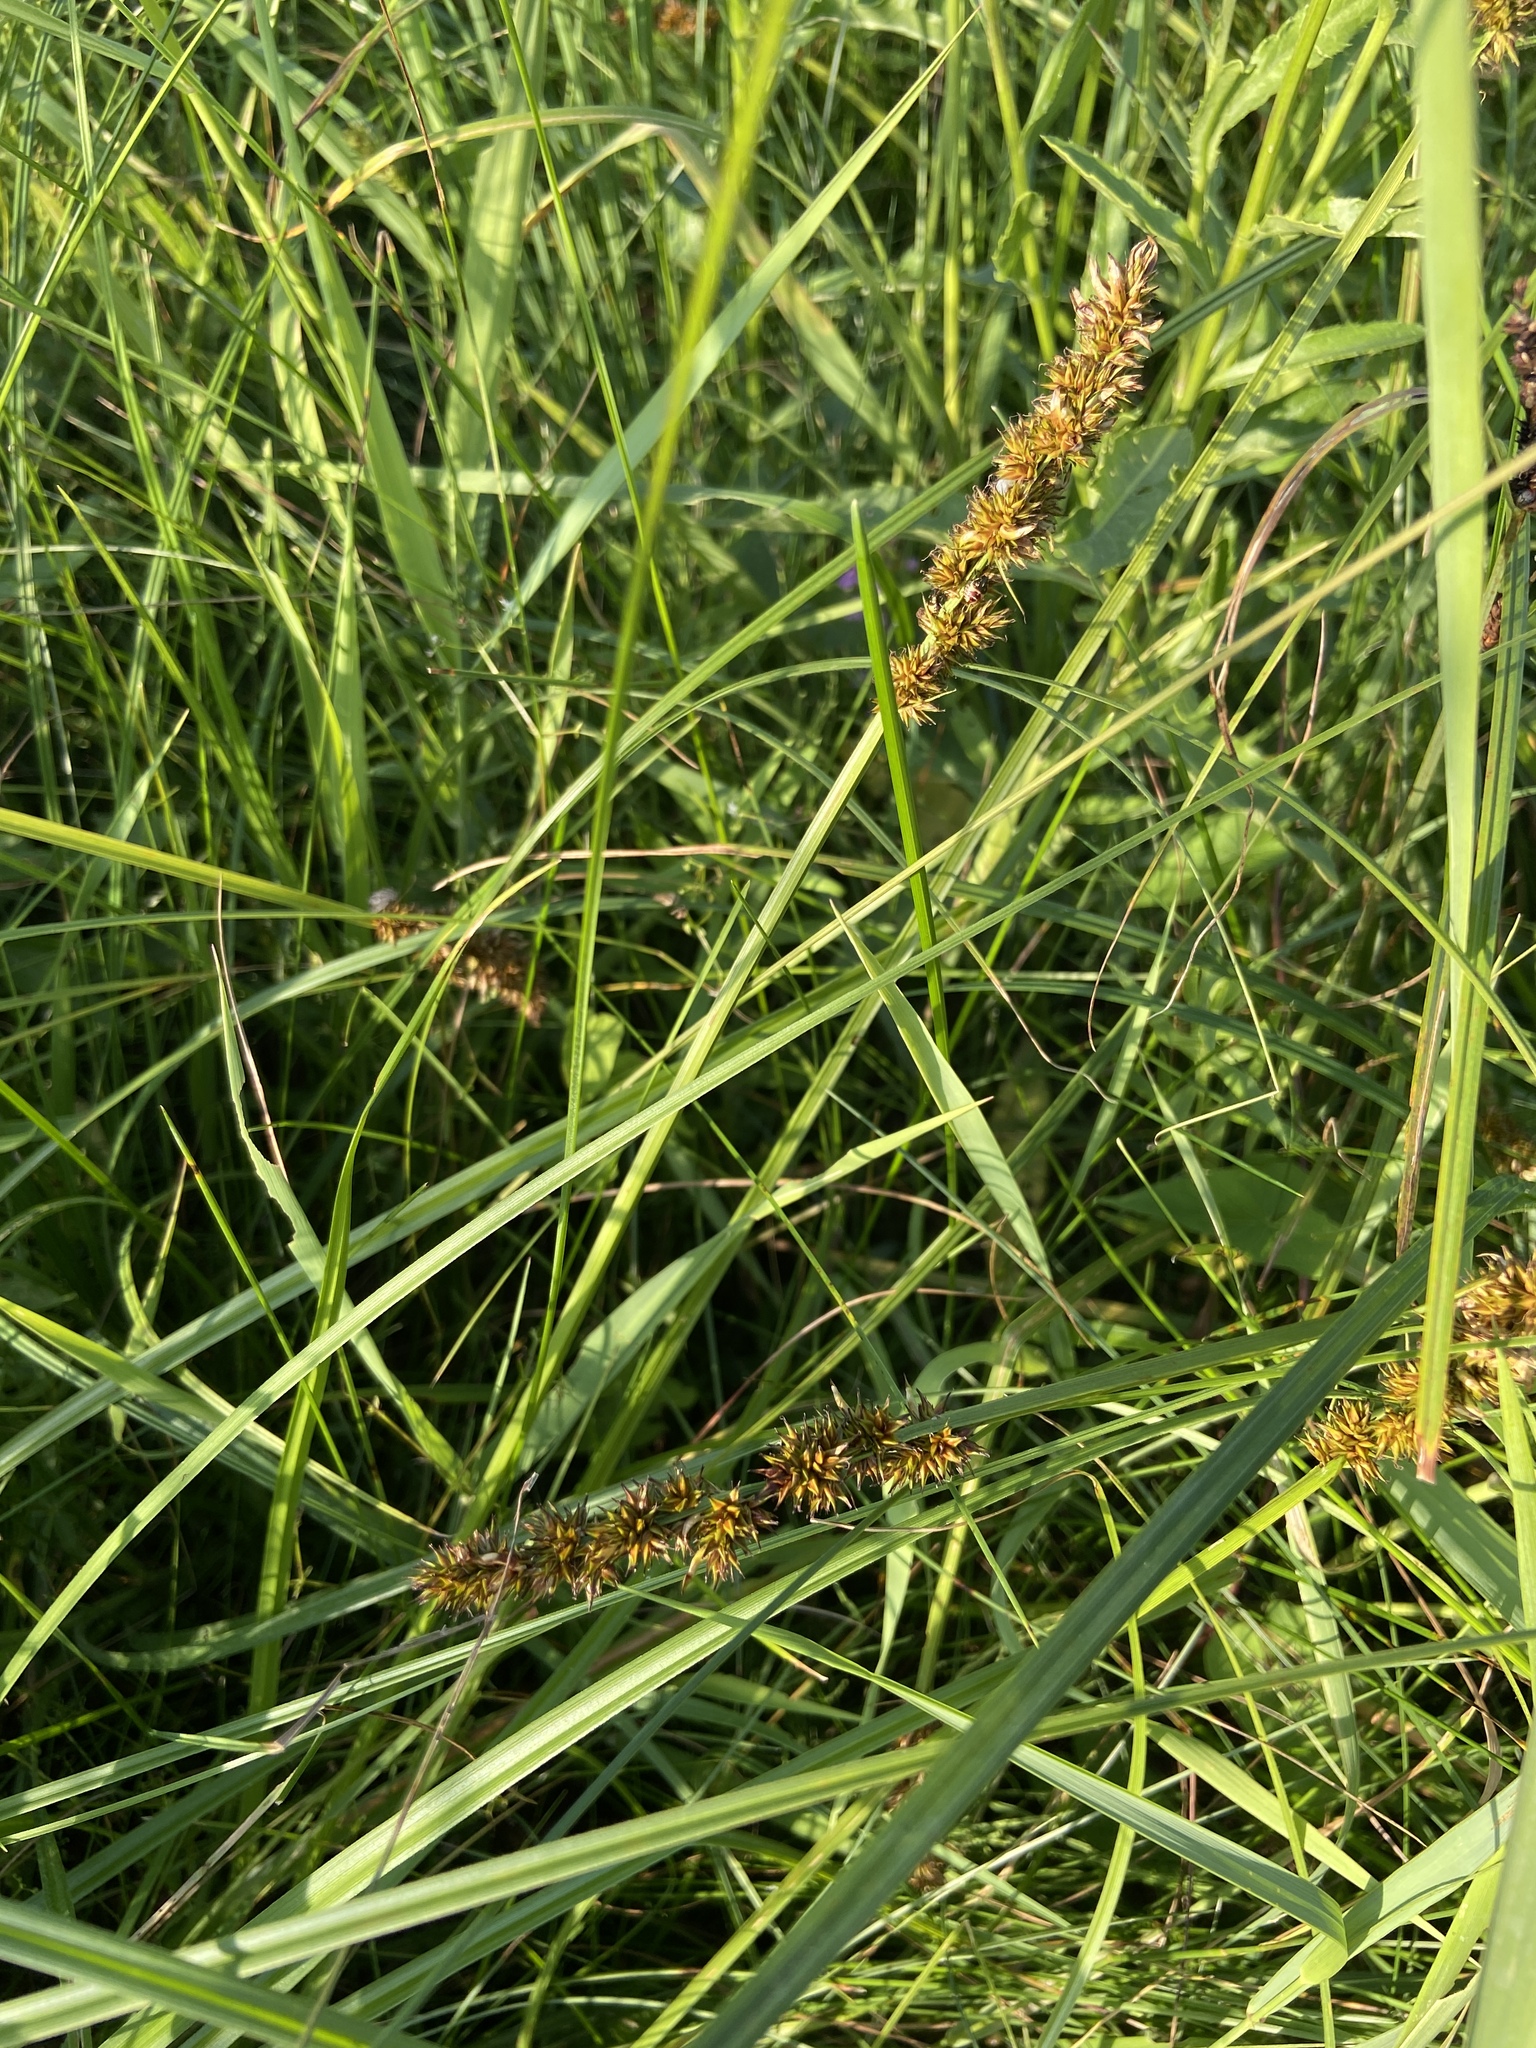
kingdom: Plantae
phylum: Tracheophyta
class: Liliopsida
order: Poales
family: Cyperaceae
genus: Carex
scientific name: Carex vulpina
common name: True fox-sedge
